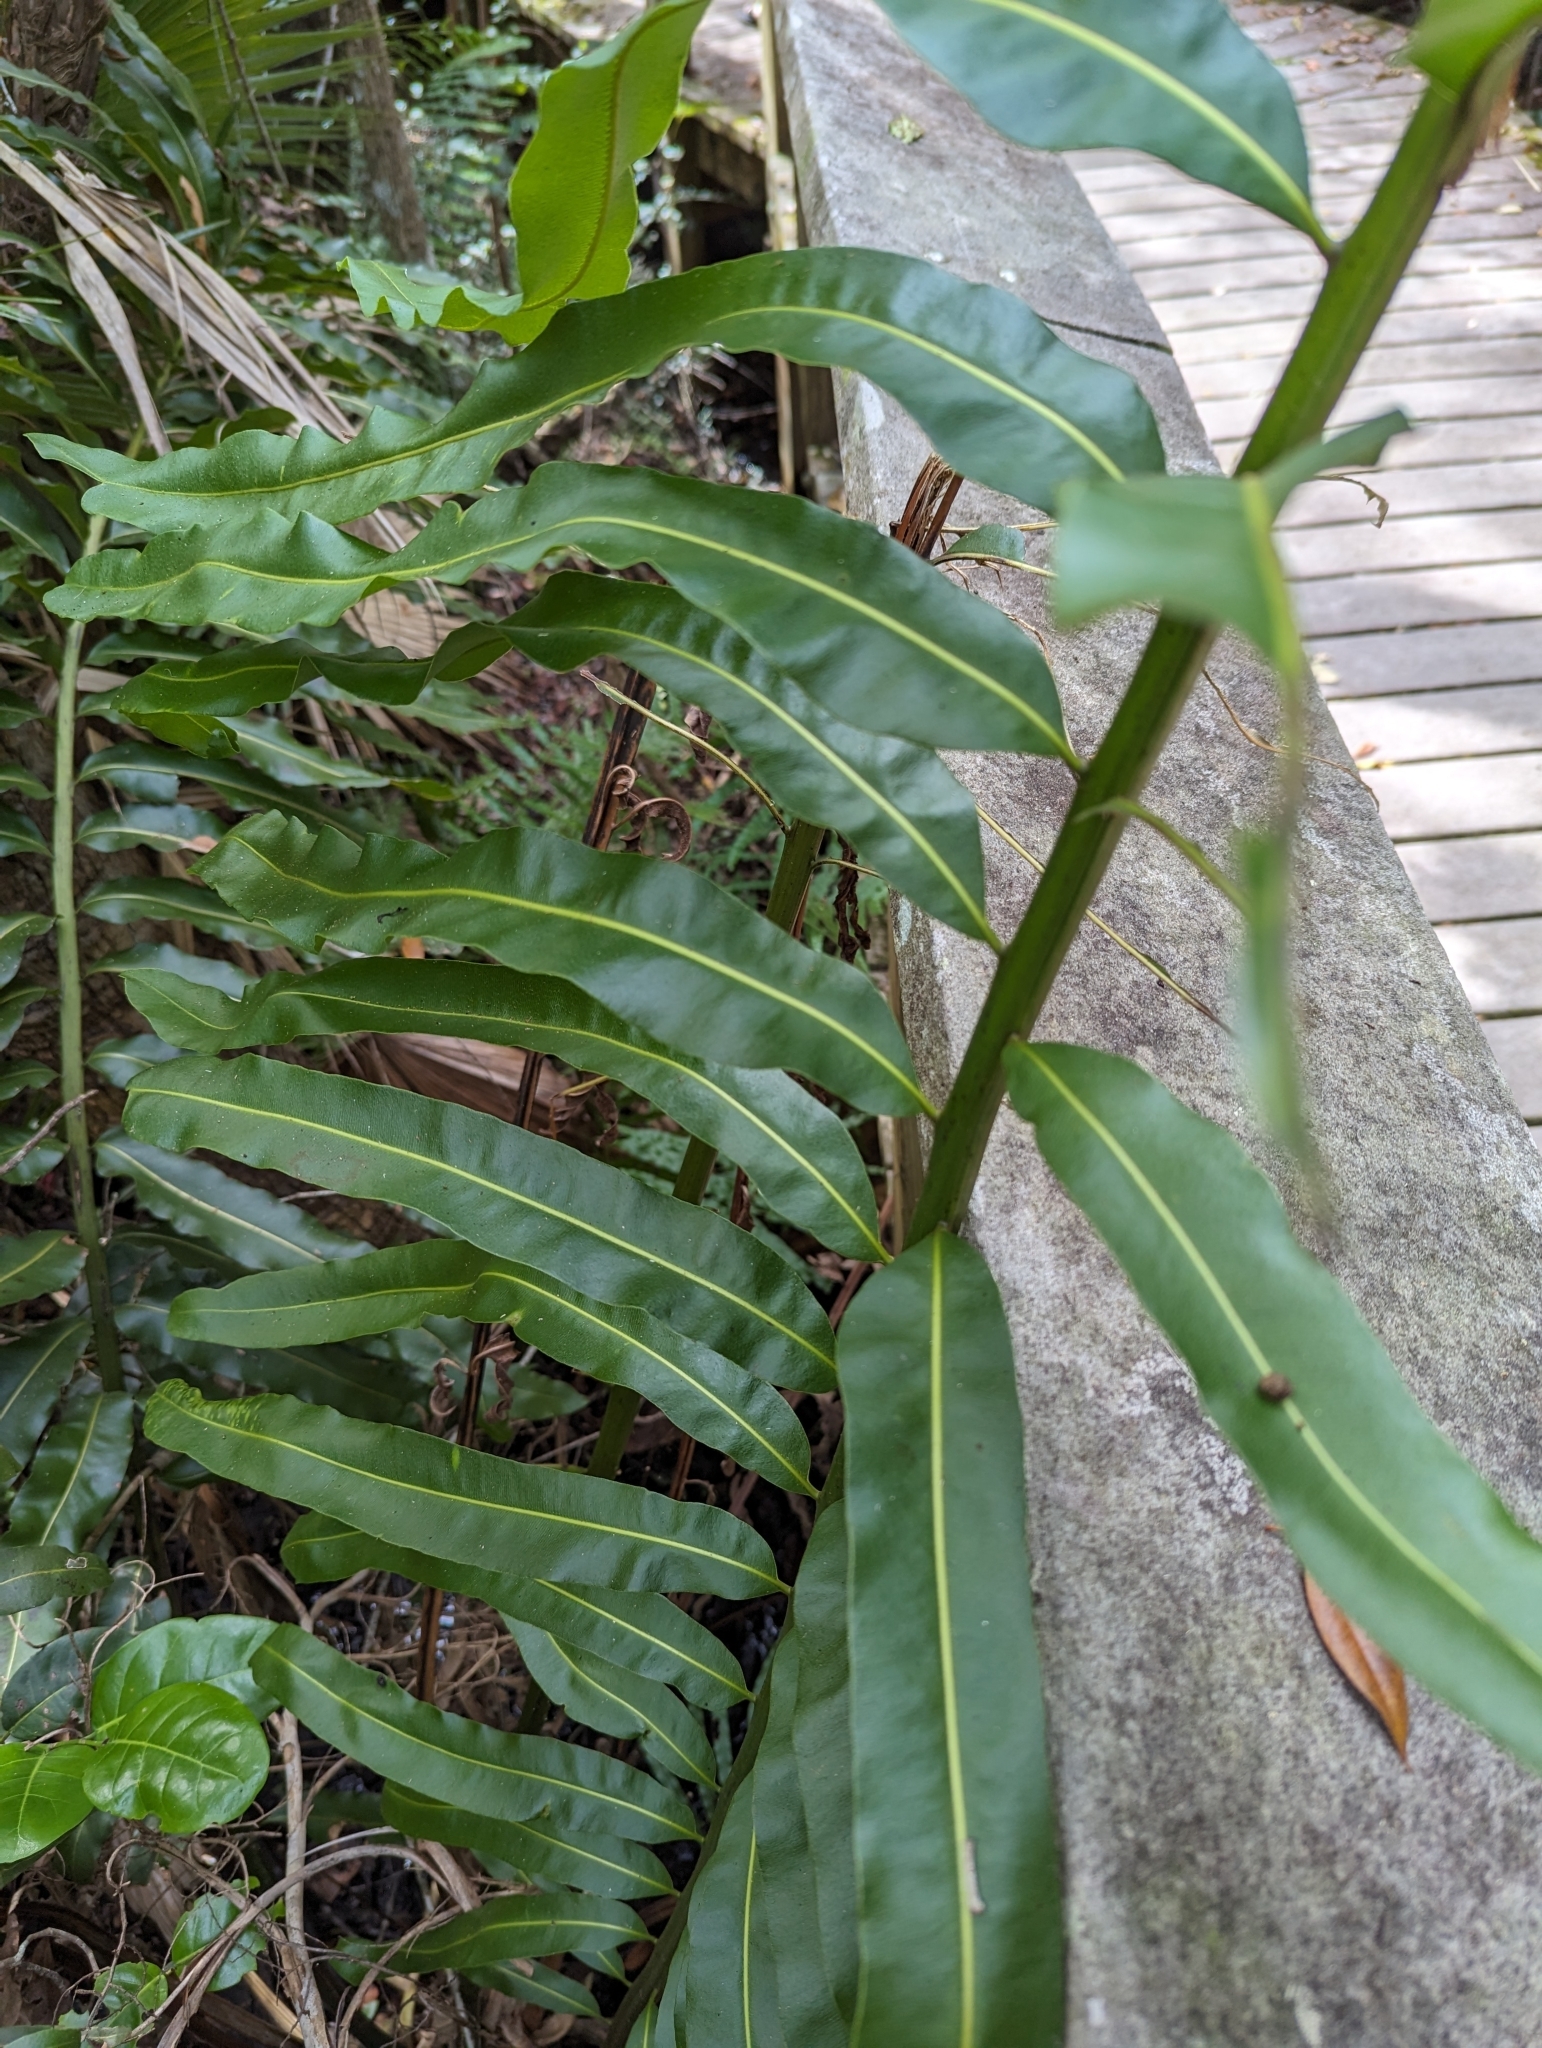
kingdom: Plantae
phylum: Tracheophyta
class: Polypodiopsida
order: Polypodiales
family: Pteridaceae
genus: Acrostichum
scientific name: Acrostichum danaeifolium
